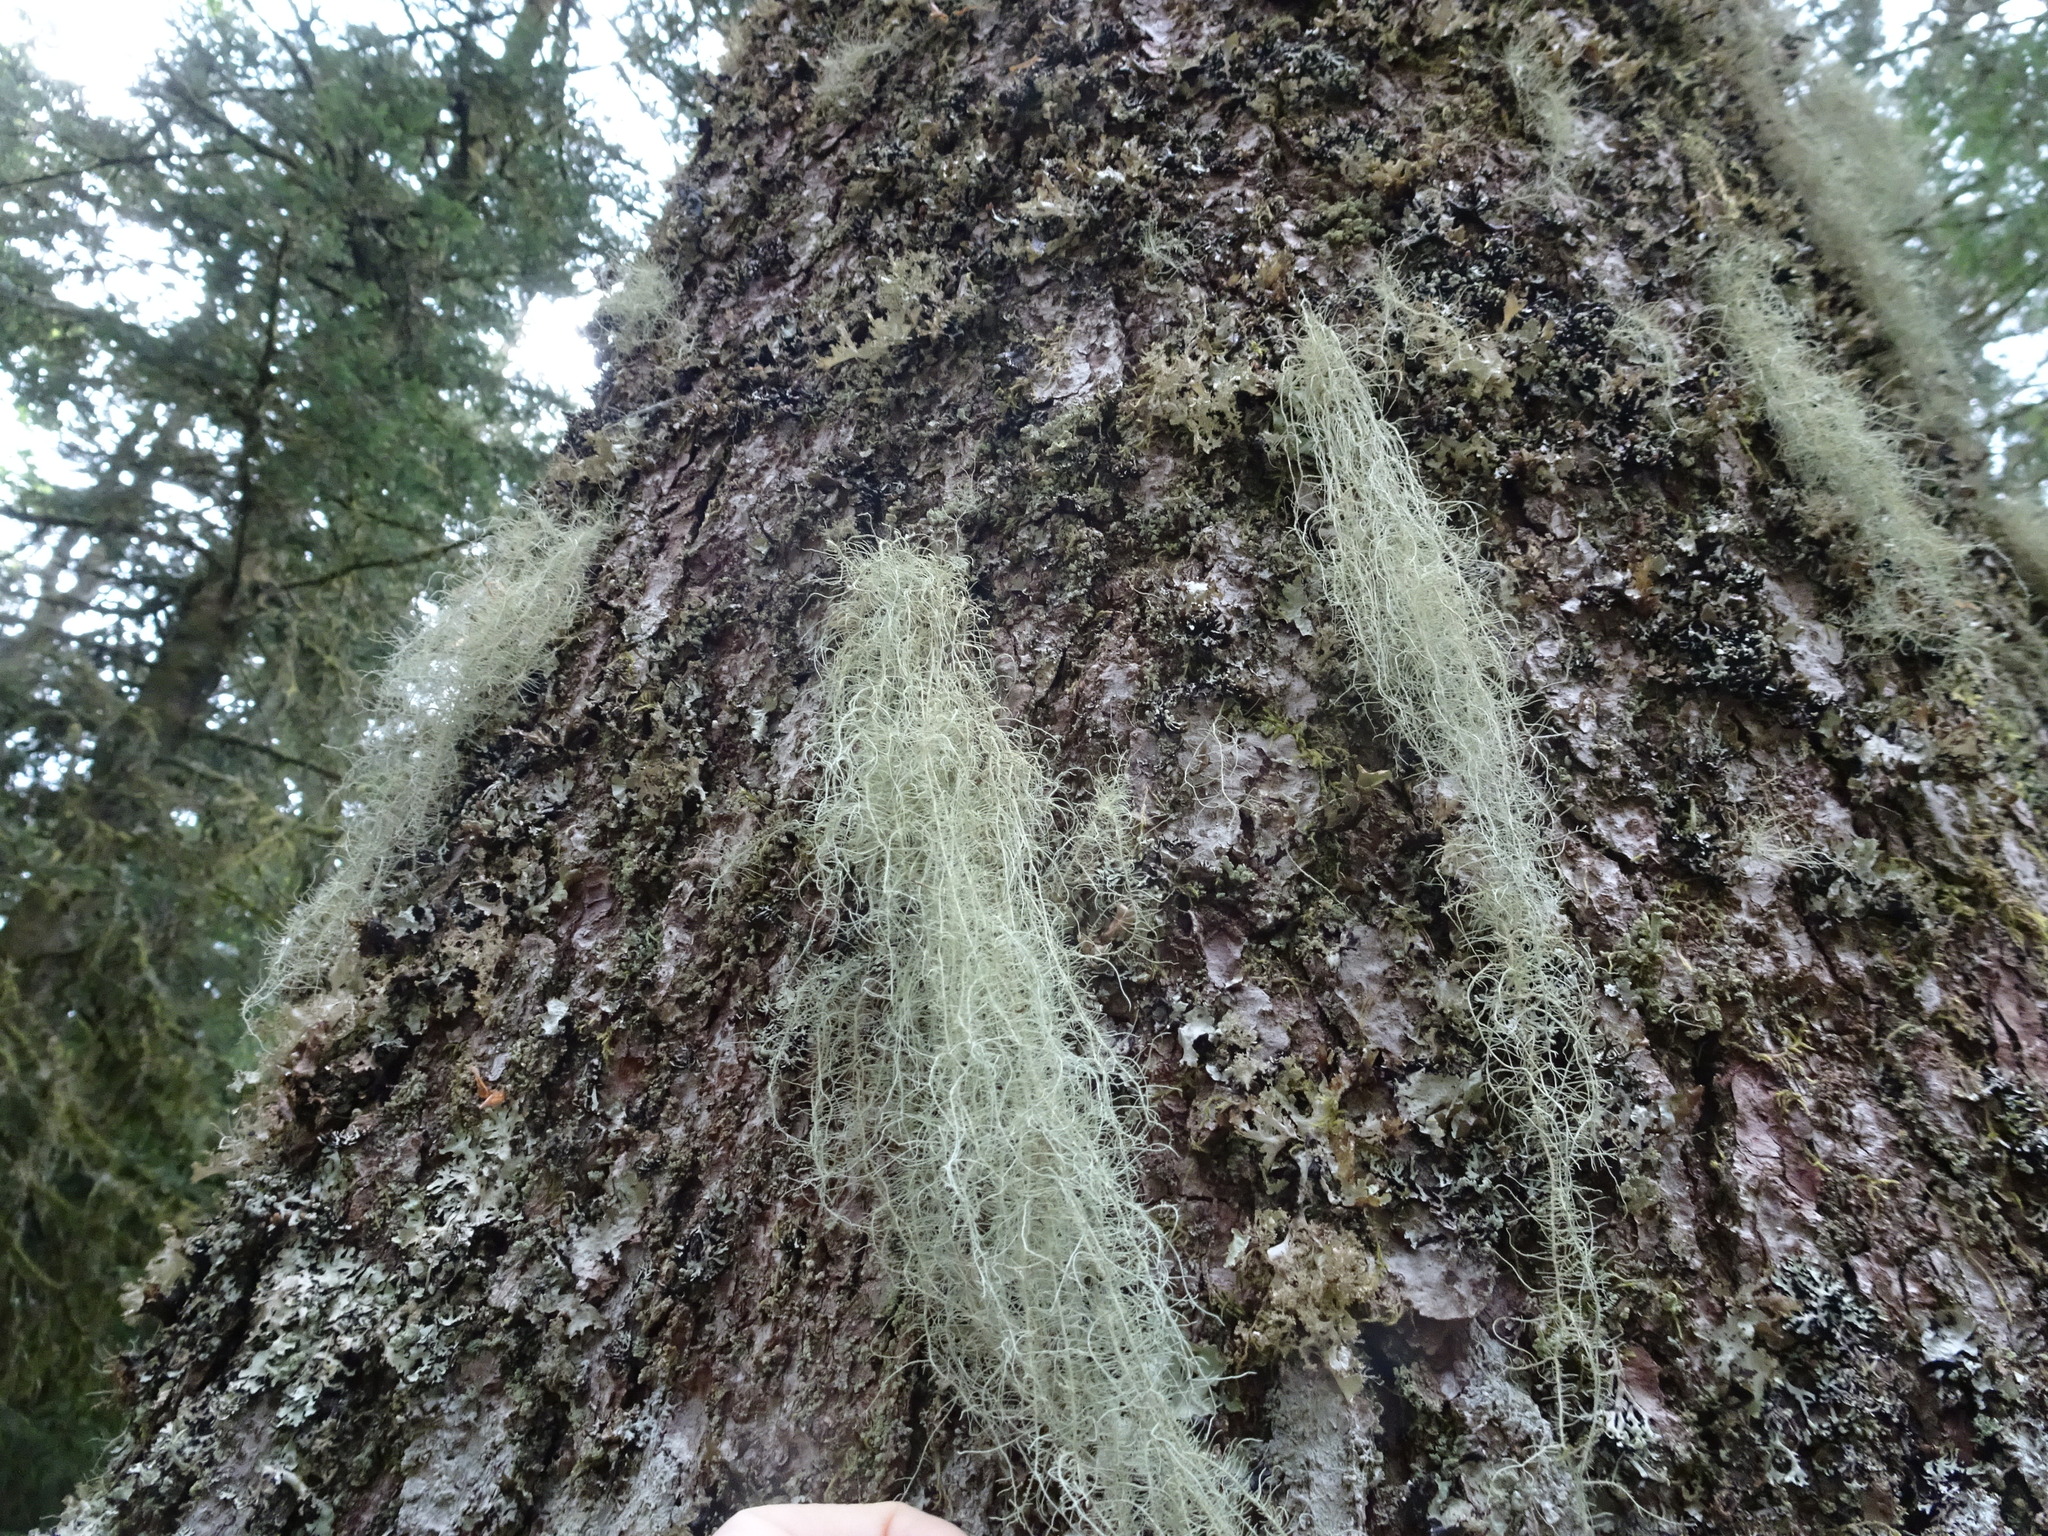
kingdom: Fungi
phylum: Ascomycota
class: Lecanoromycetes
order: Lecanorales
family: Parmeliaceae
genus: Usnea
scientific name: Usnea dasopoga
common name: Fishbone beard lichen
